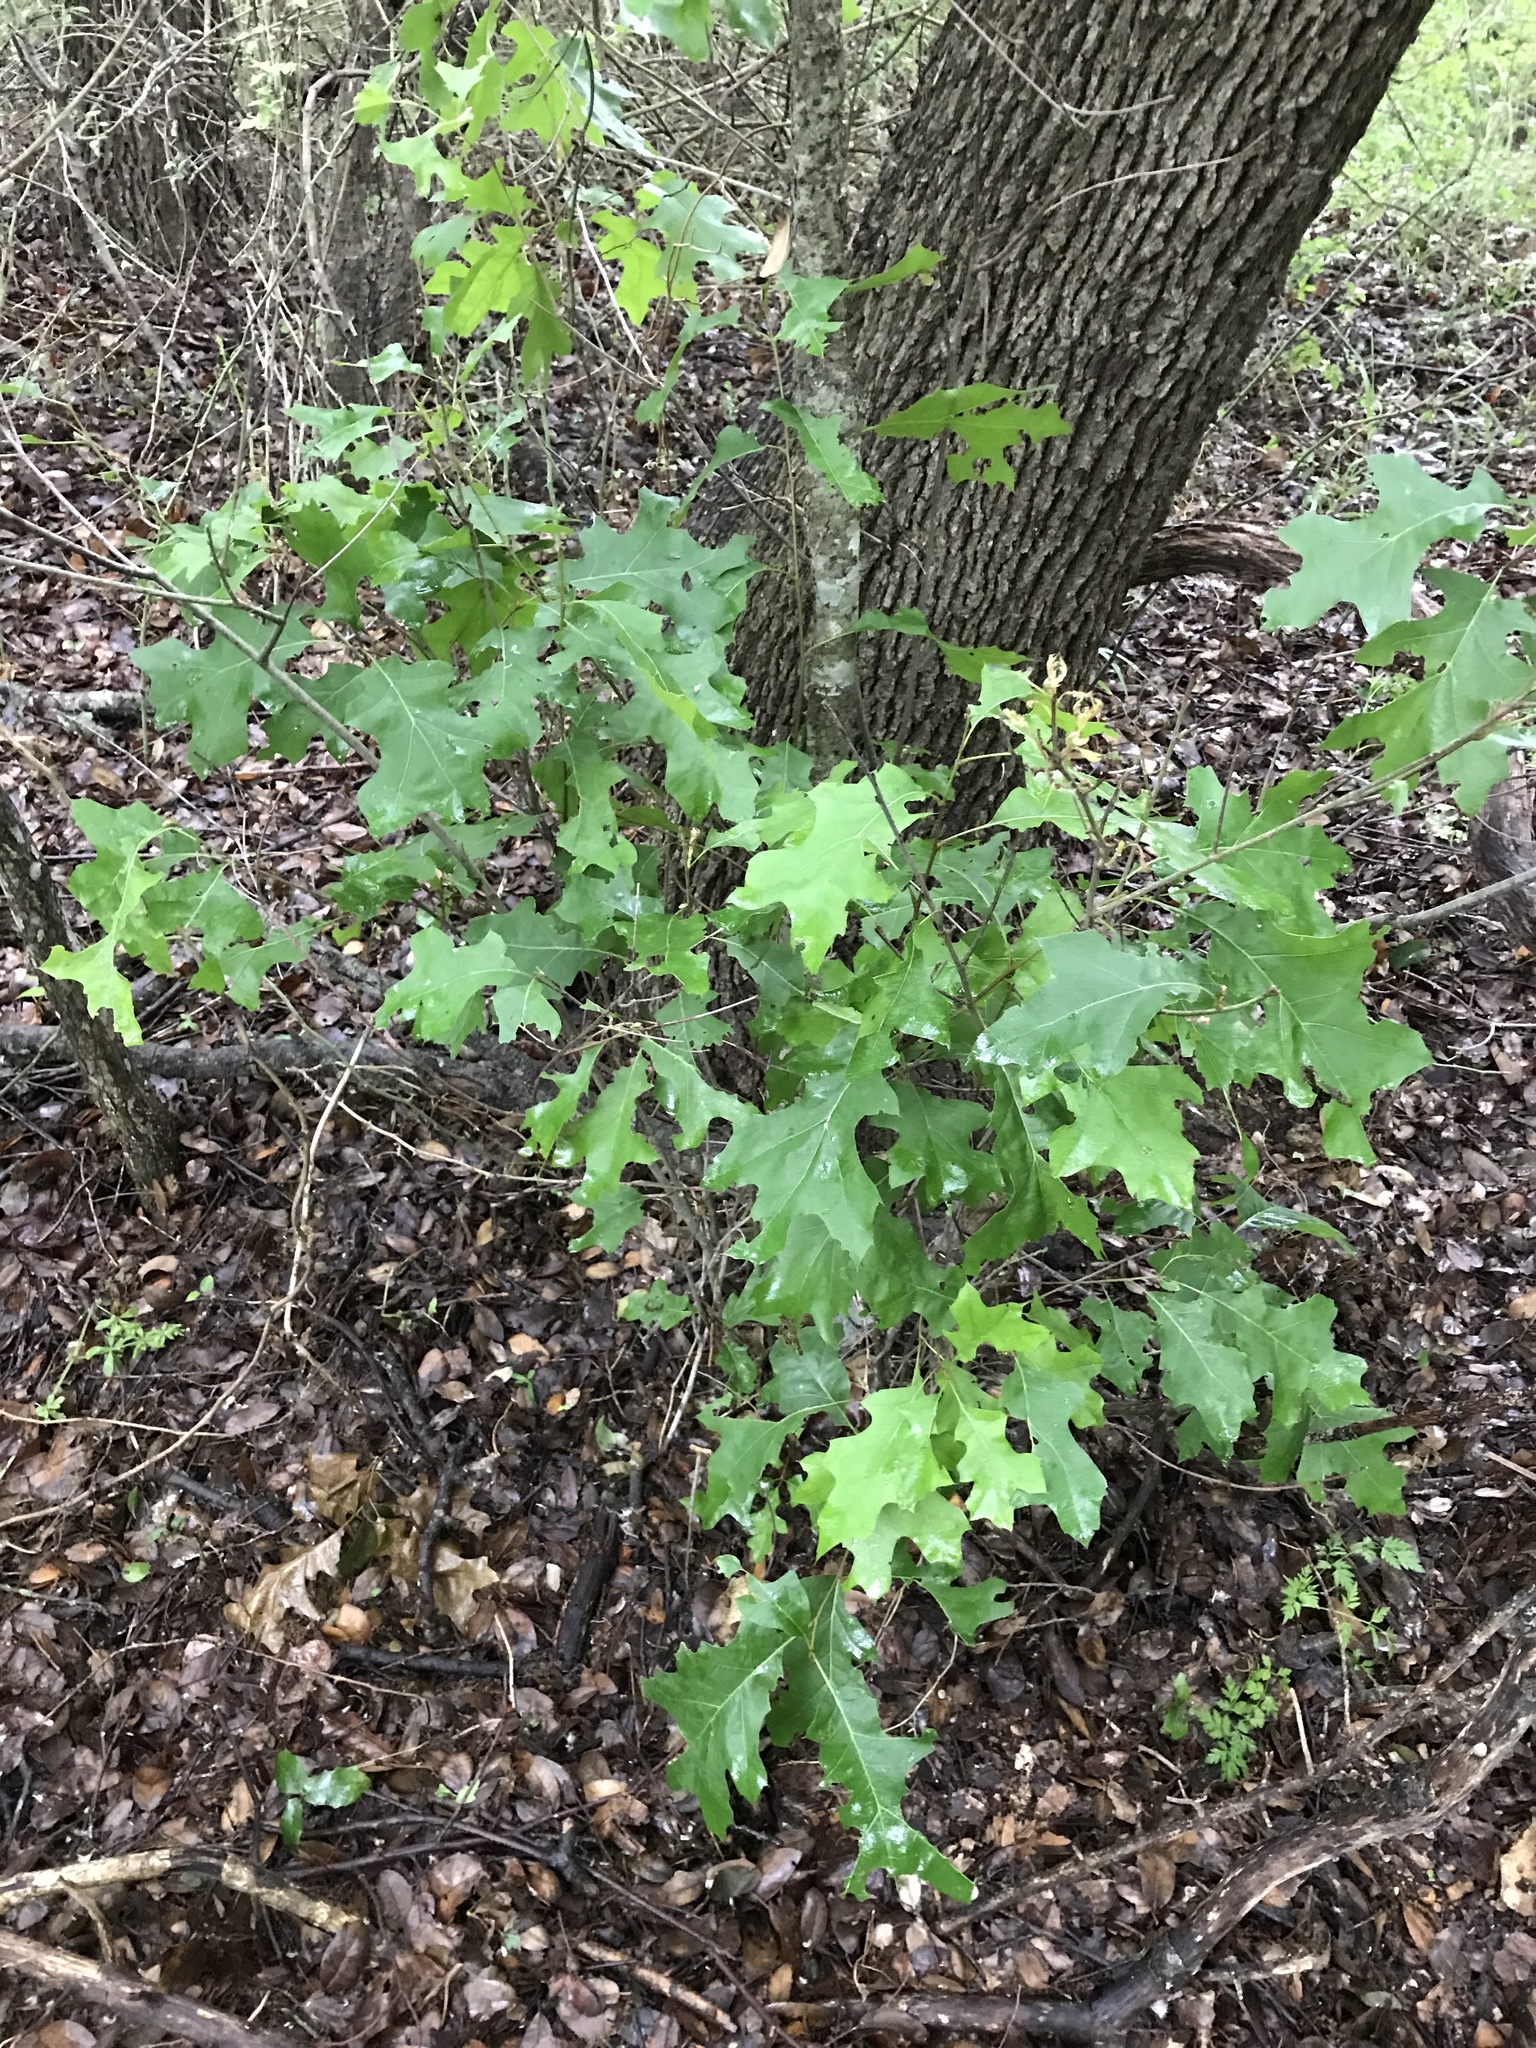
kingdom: Plantae
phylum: Tracheophyta
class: Magnoliopsida
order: Fagales
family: Fagaceae
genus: Quercus
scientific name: Quercus buckleyi
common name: Buckley oak
